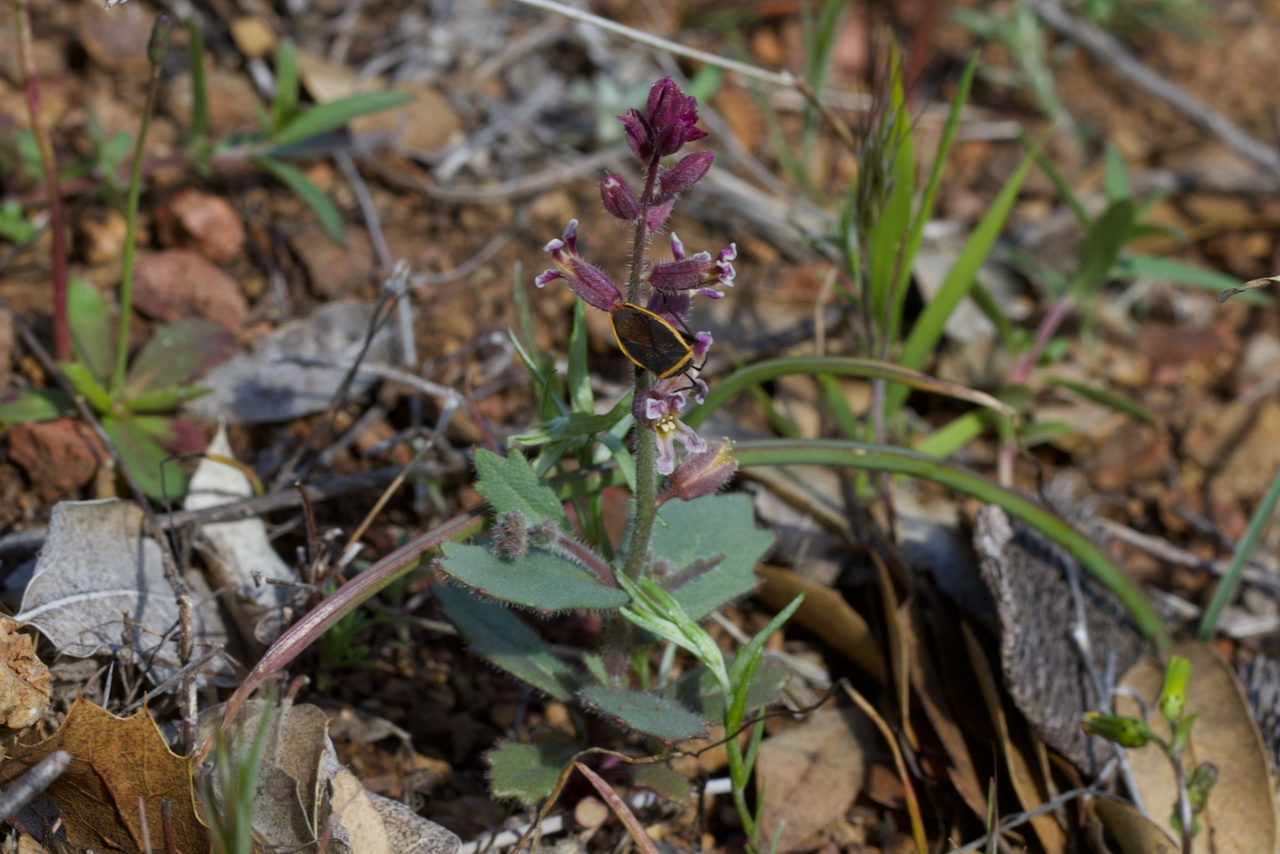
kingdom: Plantae
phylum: Tracheophyta
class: Magnoliopsida
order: Brassicales
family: Brassicaceae
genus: Streptanthus
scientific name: Streptanthus hispidus
